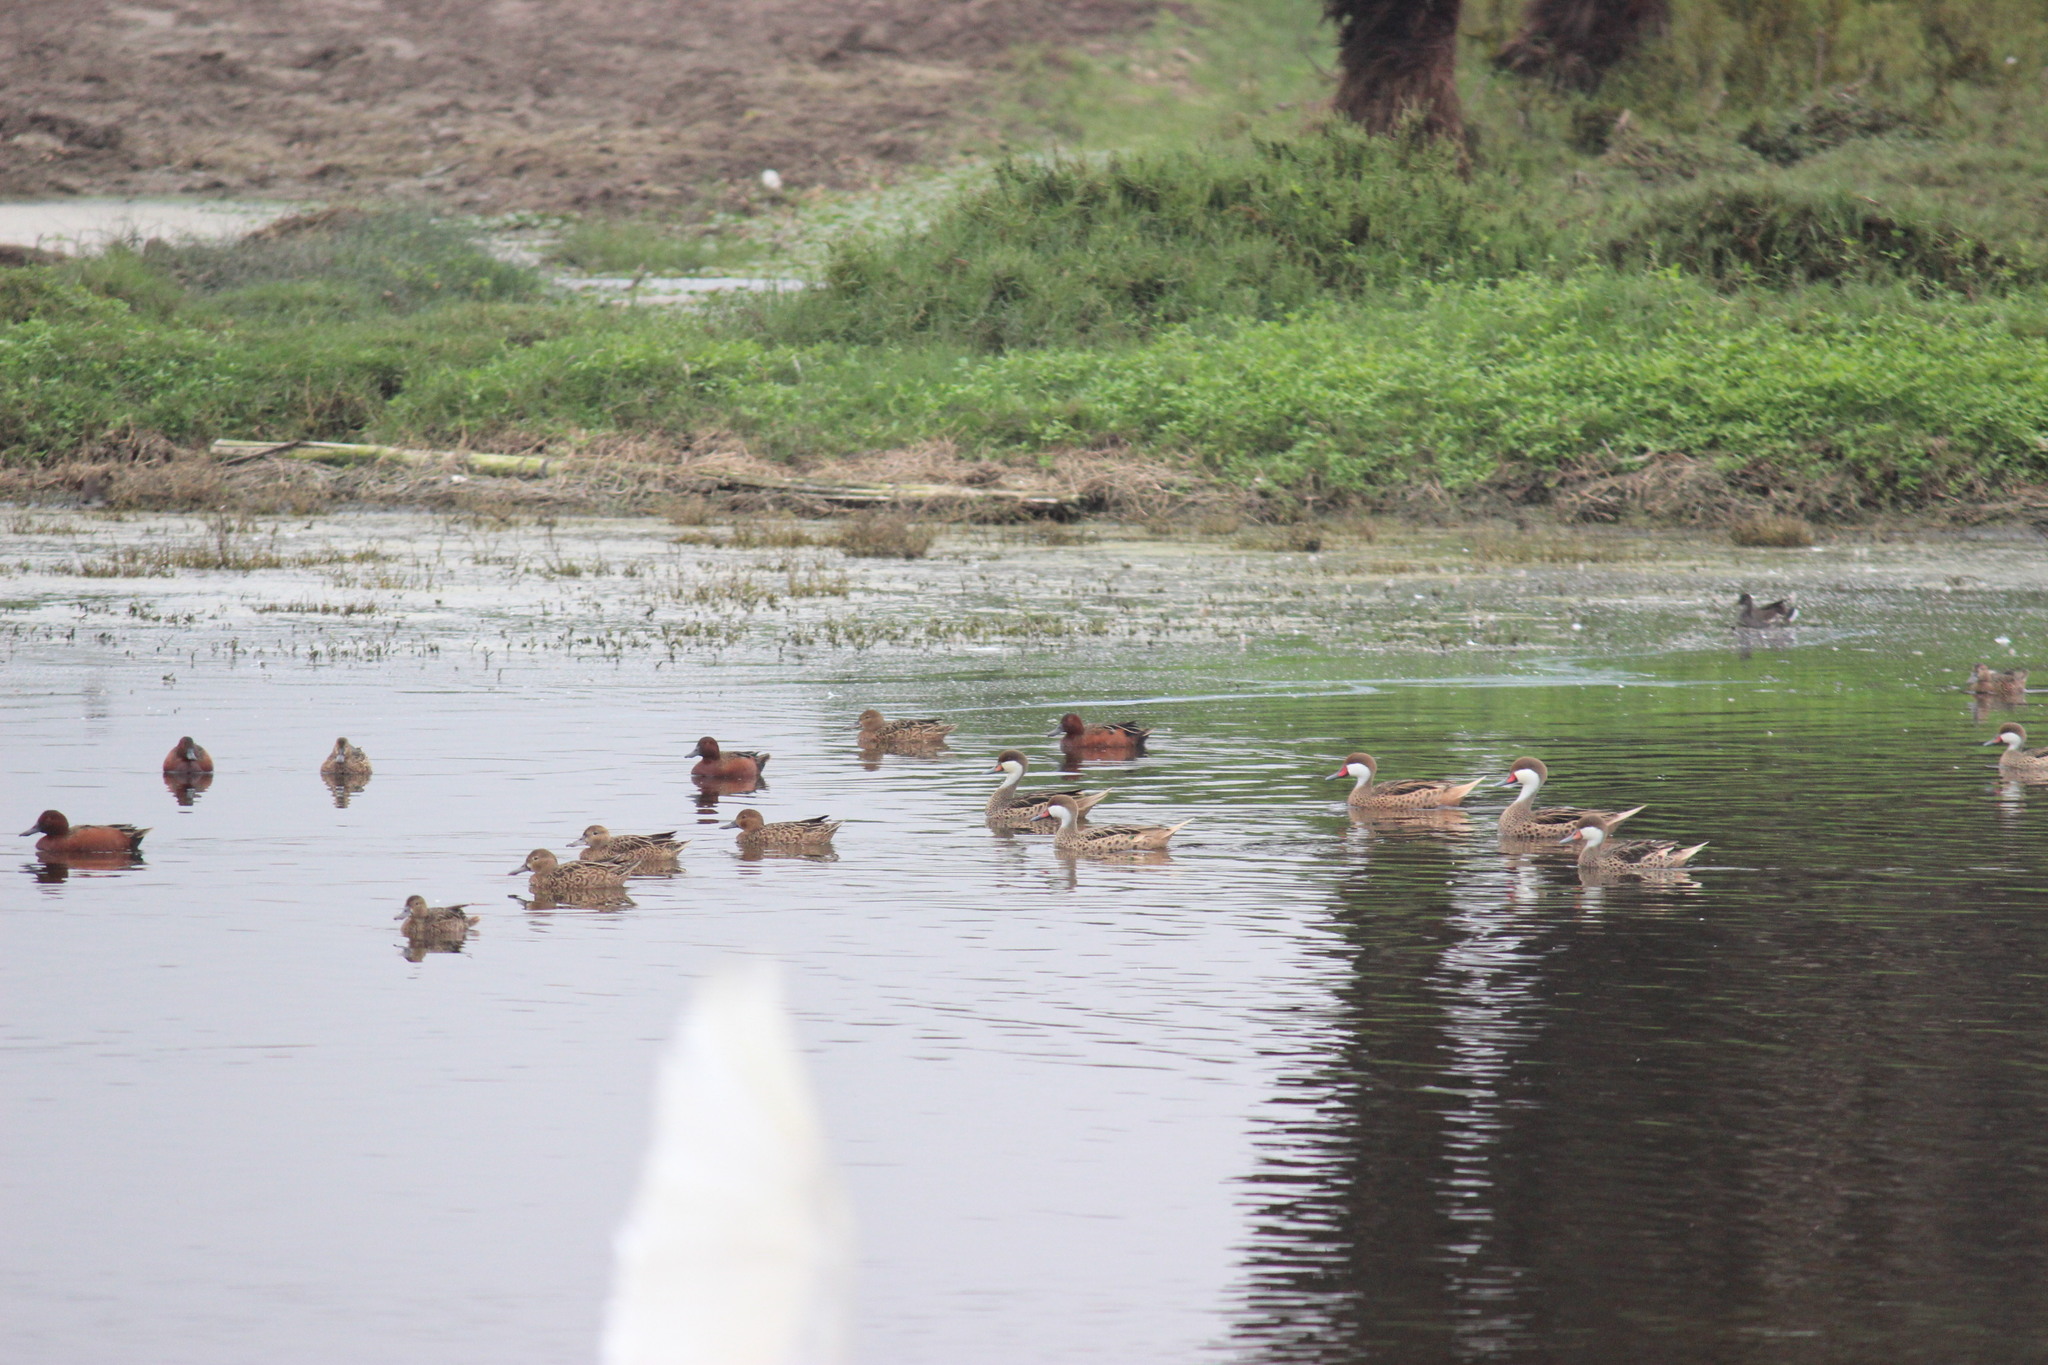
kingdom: Animalia
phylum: Chordata
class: Aves
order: Anseriformes
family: Anatidae
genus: Anas
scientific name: Anas bahamensis
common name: White-cheeked pintail
